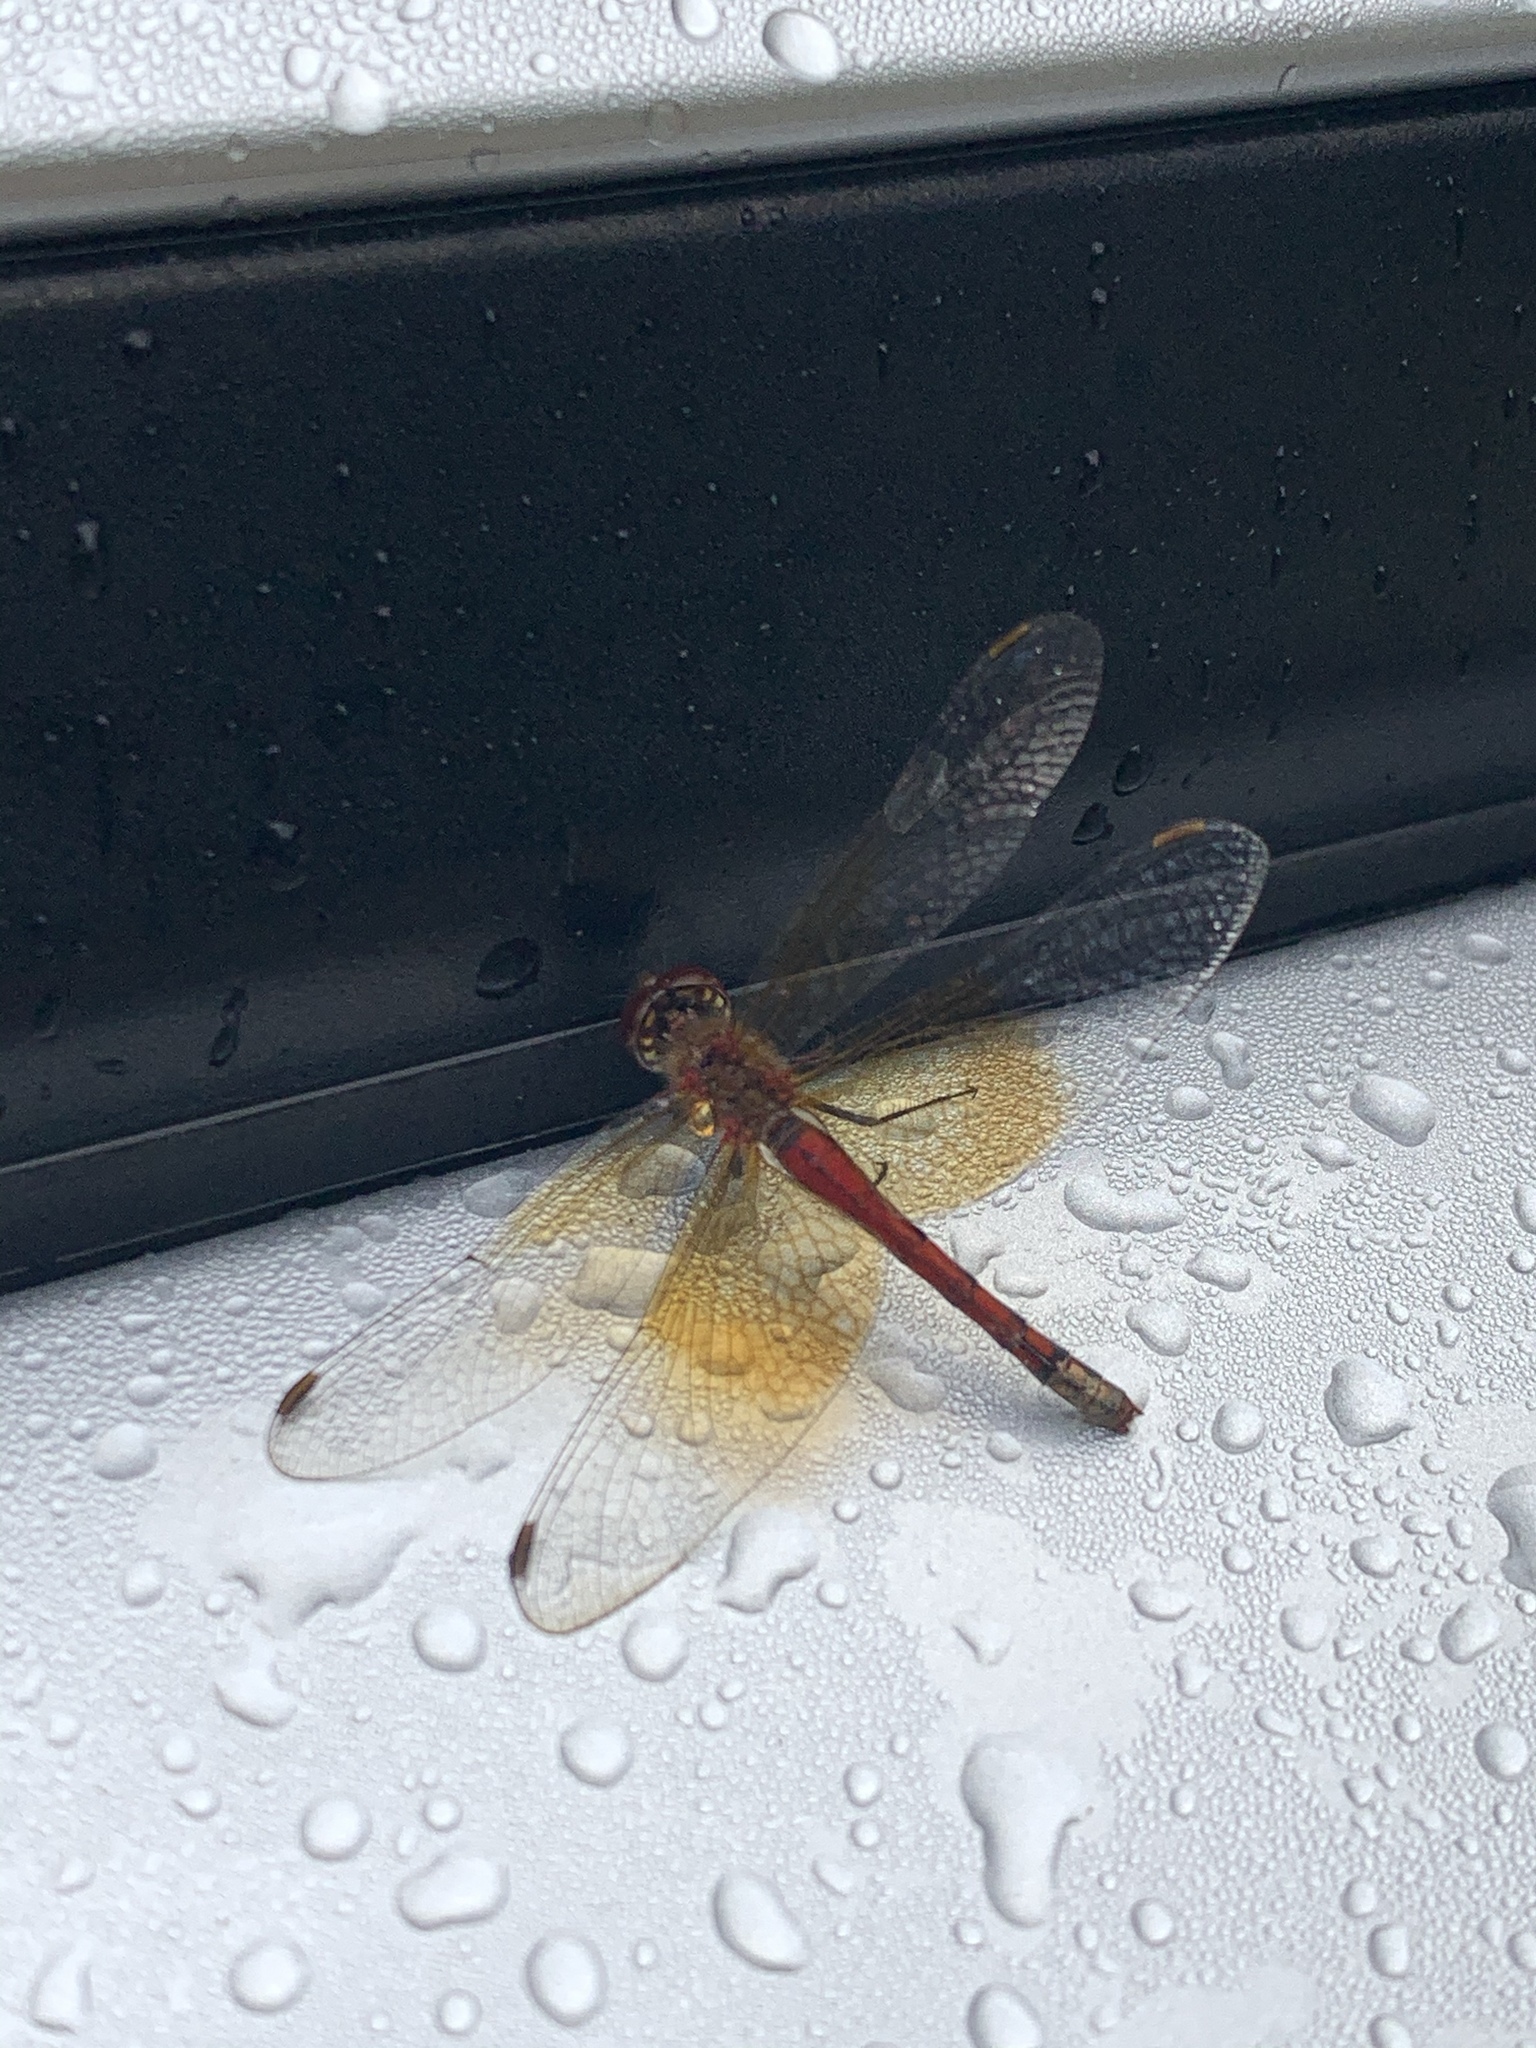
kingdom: Animalia
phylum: Arthropoda
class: Insecta
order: Odonata
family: Libellulidae
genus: Sympetrum
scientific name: Sympetrum semicinctum
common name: Band-winged meadowhawk
